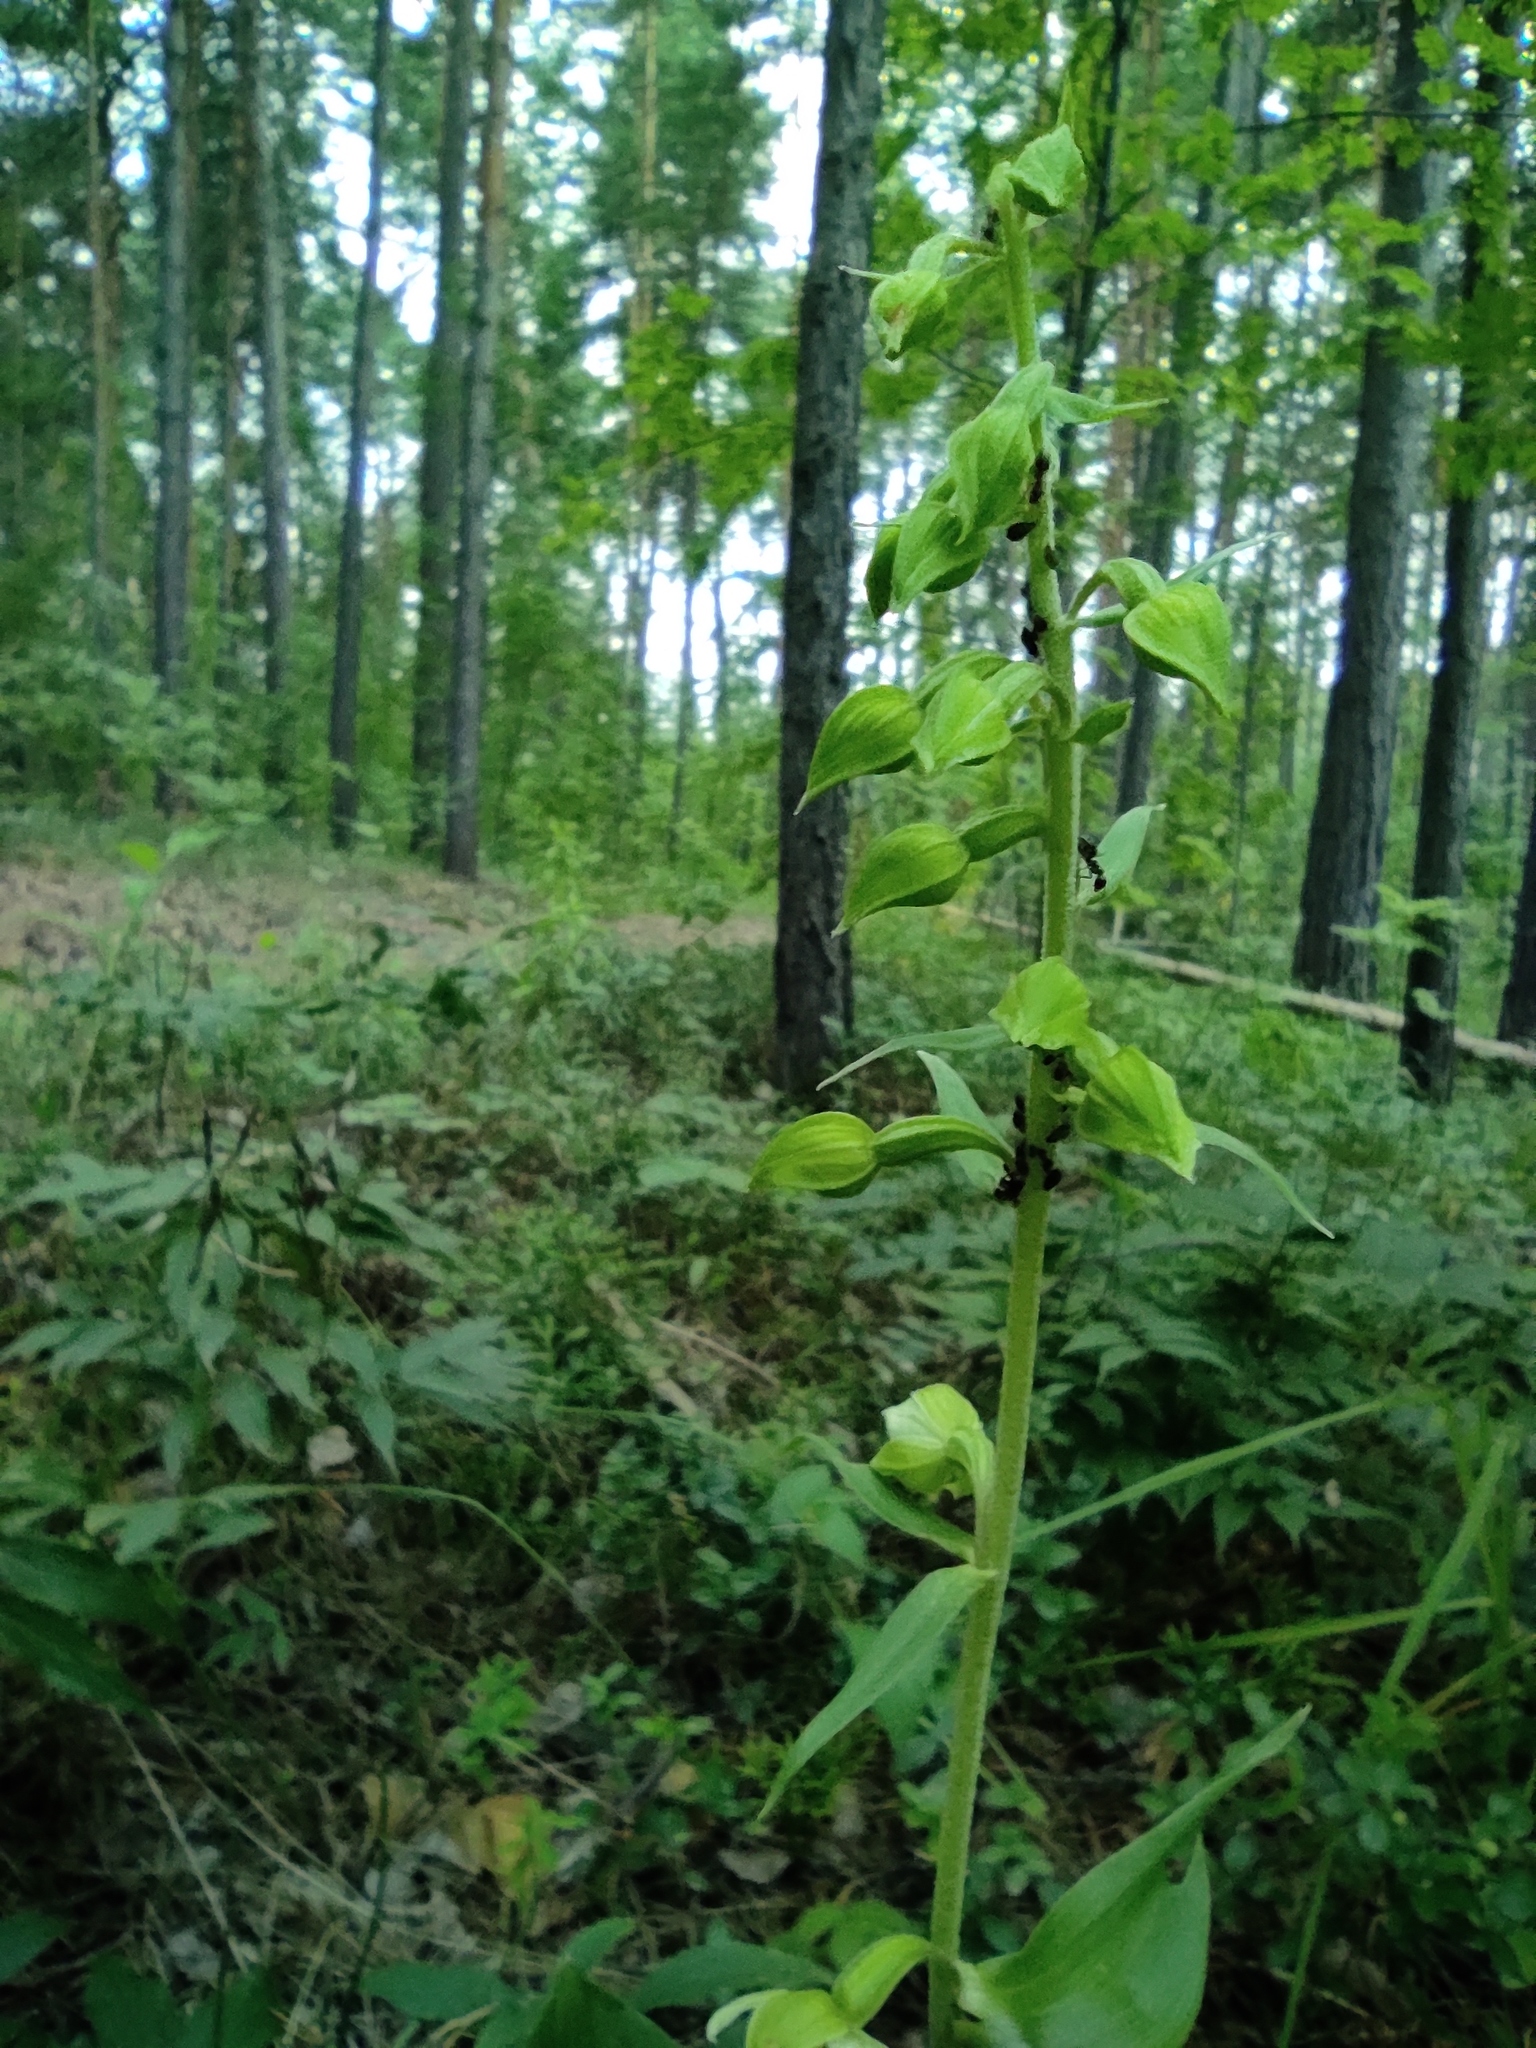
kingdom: Plantae
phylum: Tracheophyta
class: Liliopsida
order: Asparagales
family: Orchidaceae
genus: Epipactis
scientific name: Epipactis helleborine
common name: Broad-leaved helleborine
